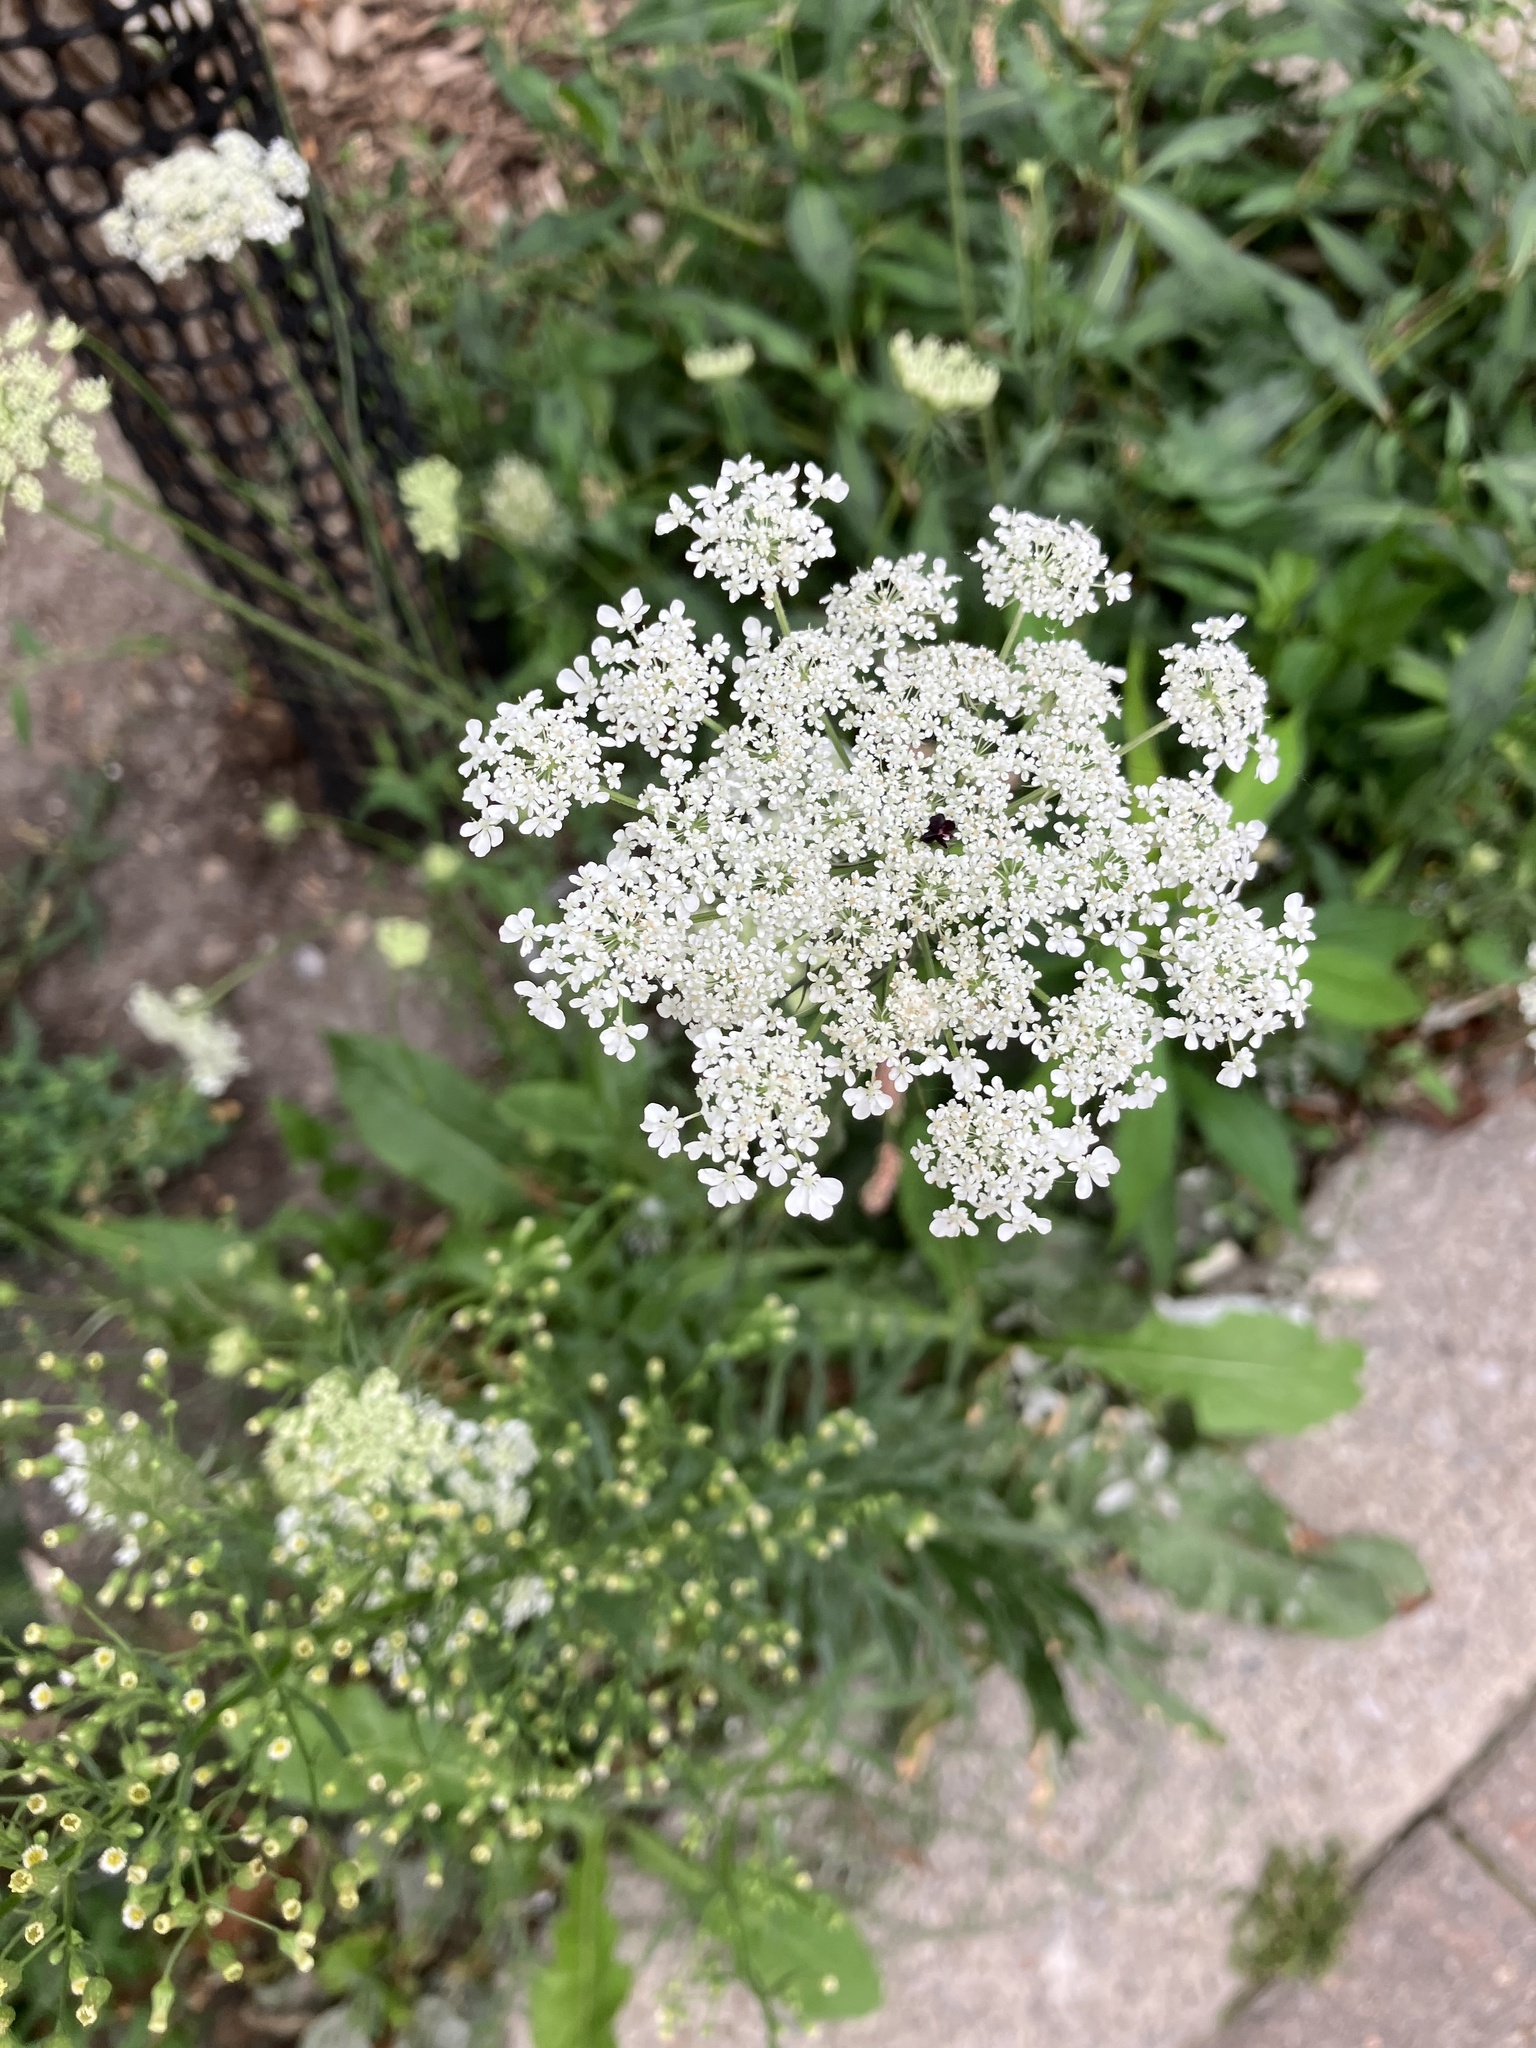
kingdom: Plantae
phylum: Tracheophyta
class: Magnoliopsida
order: Apiales
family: Apiaceae
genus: Daucus
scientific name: Daucus carota
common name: Wild carrot
